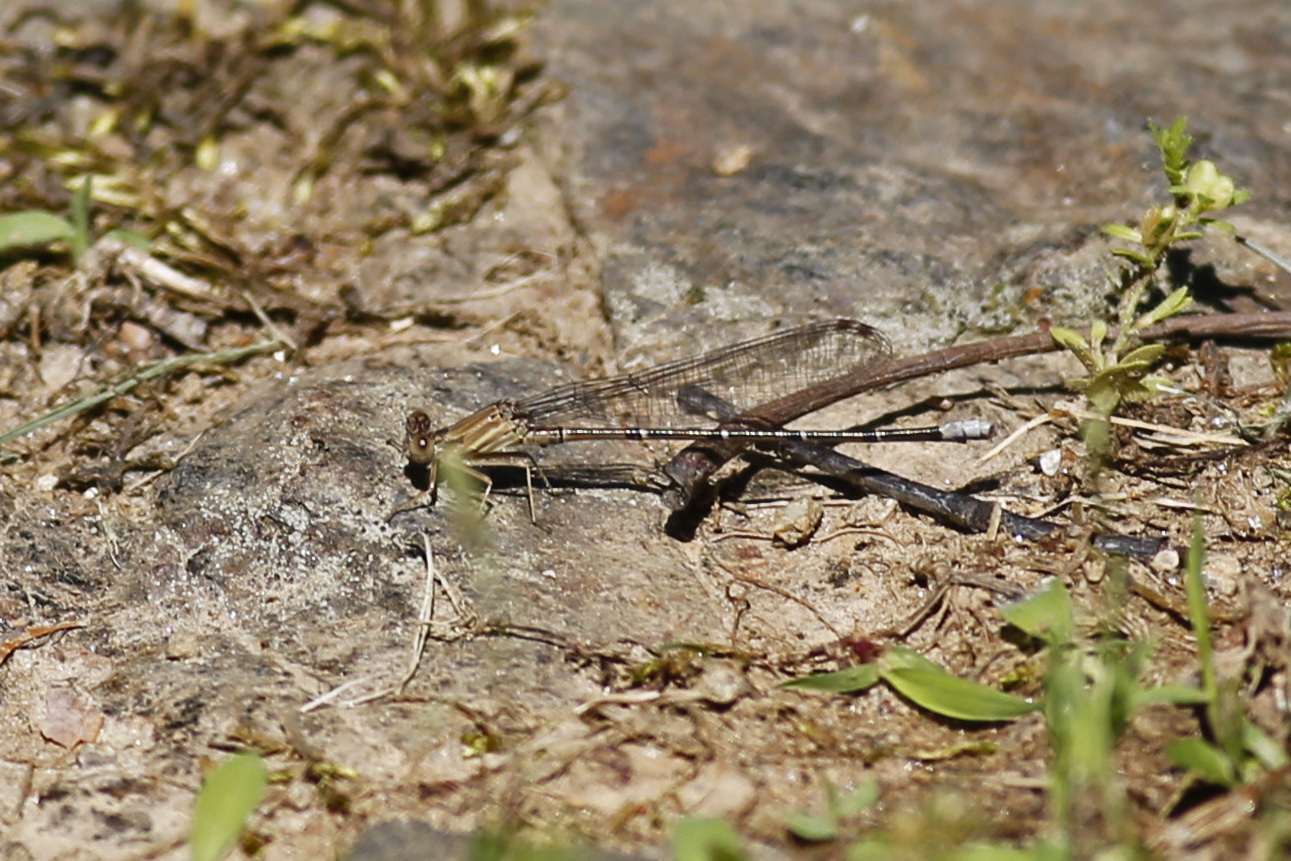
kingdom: Animalia
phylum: Arthropoda
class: Insecta
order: Odonata
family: Coenagrionidae
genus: Argia
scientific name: Argia apicalis
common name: Blue-fronted dancer
